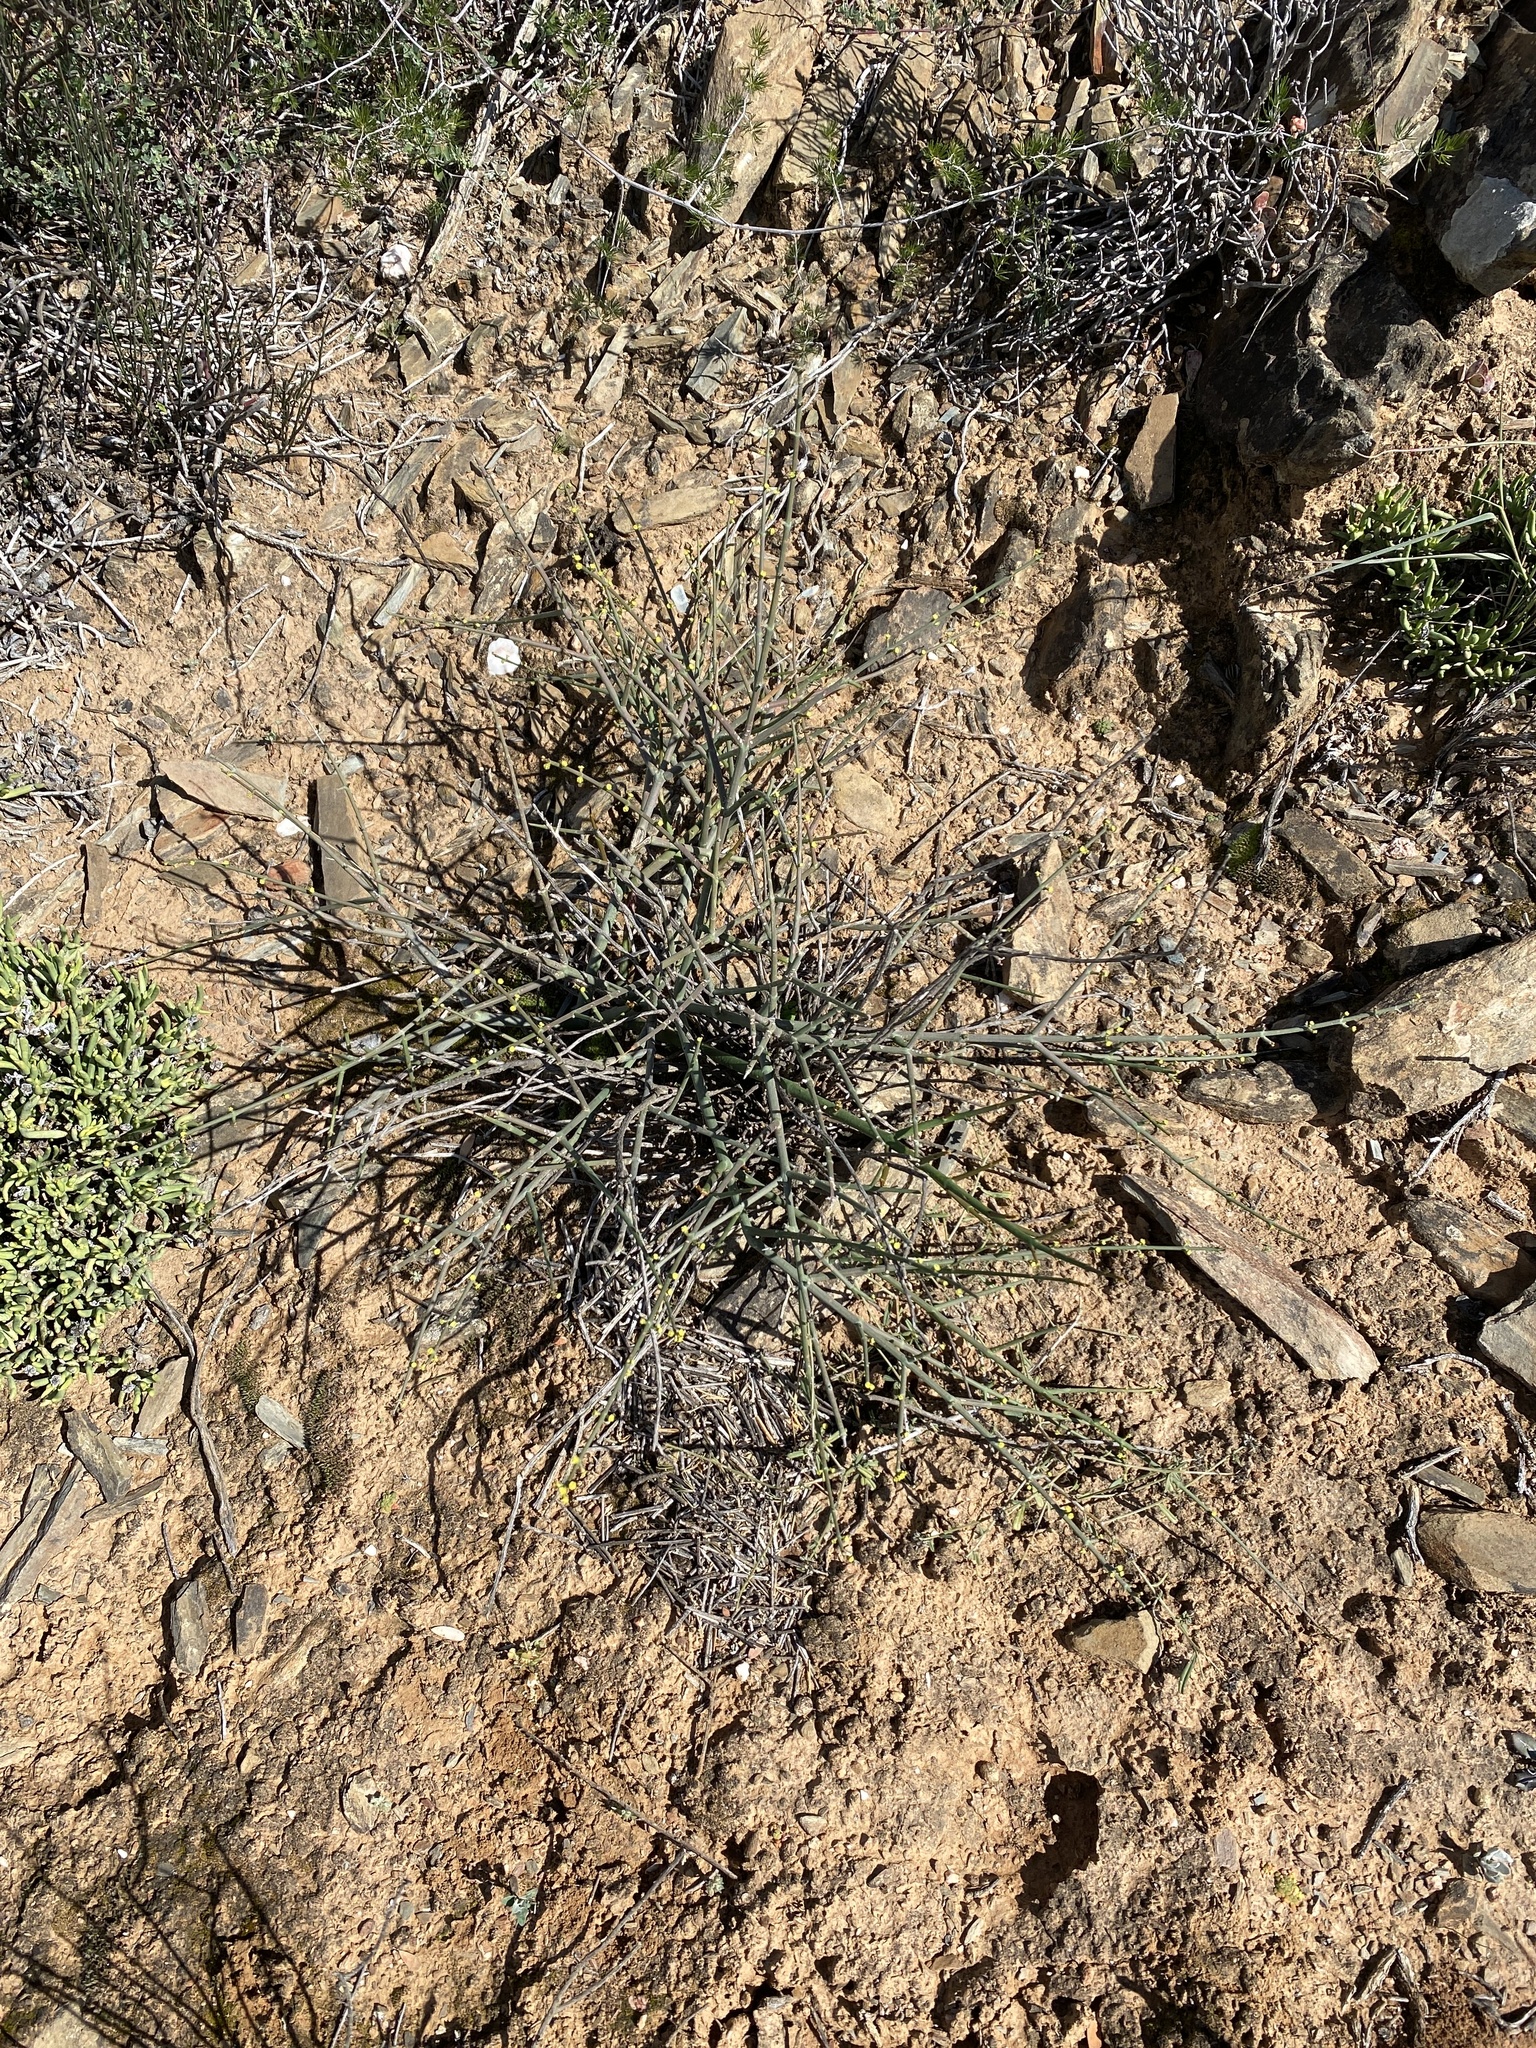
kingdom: Plantae
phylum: Tracheophyta
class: Magnoliopsida
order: Malpighiales
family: Euphorbiaceae
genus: Euphorbia
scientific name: Euphorbia rhombifolia
